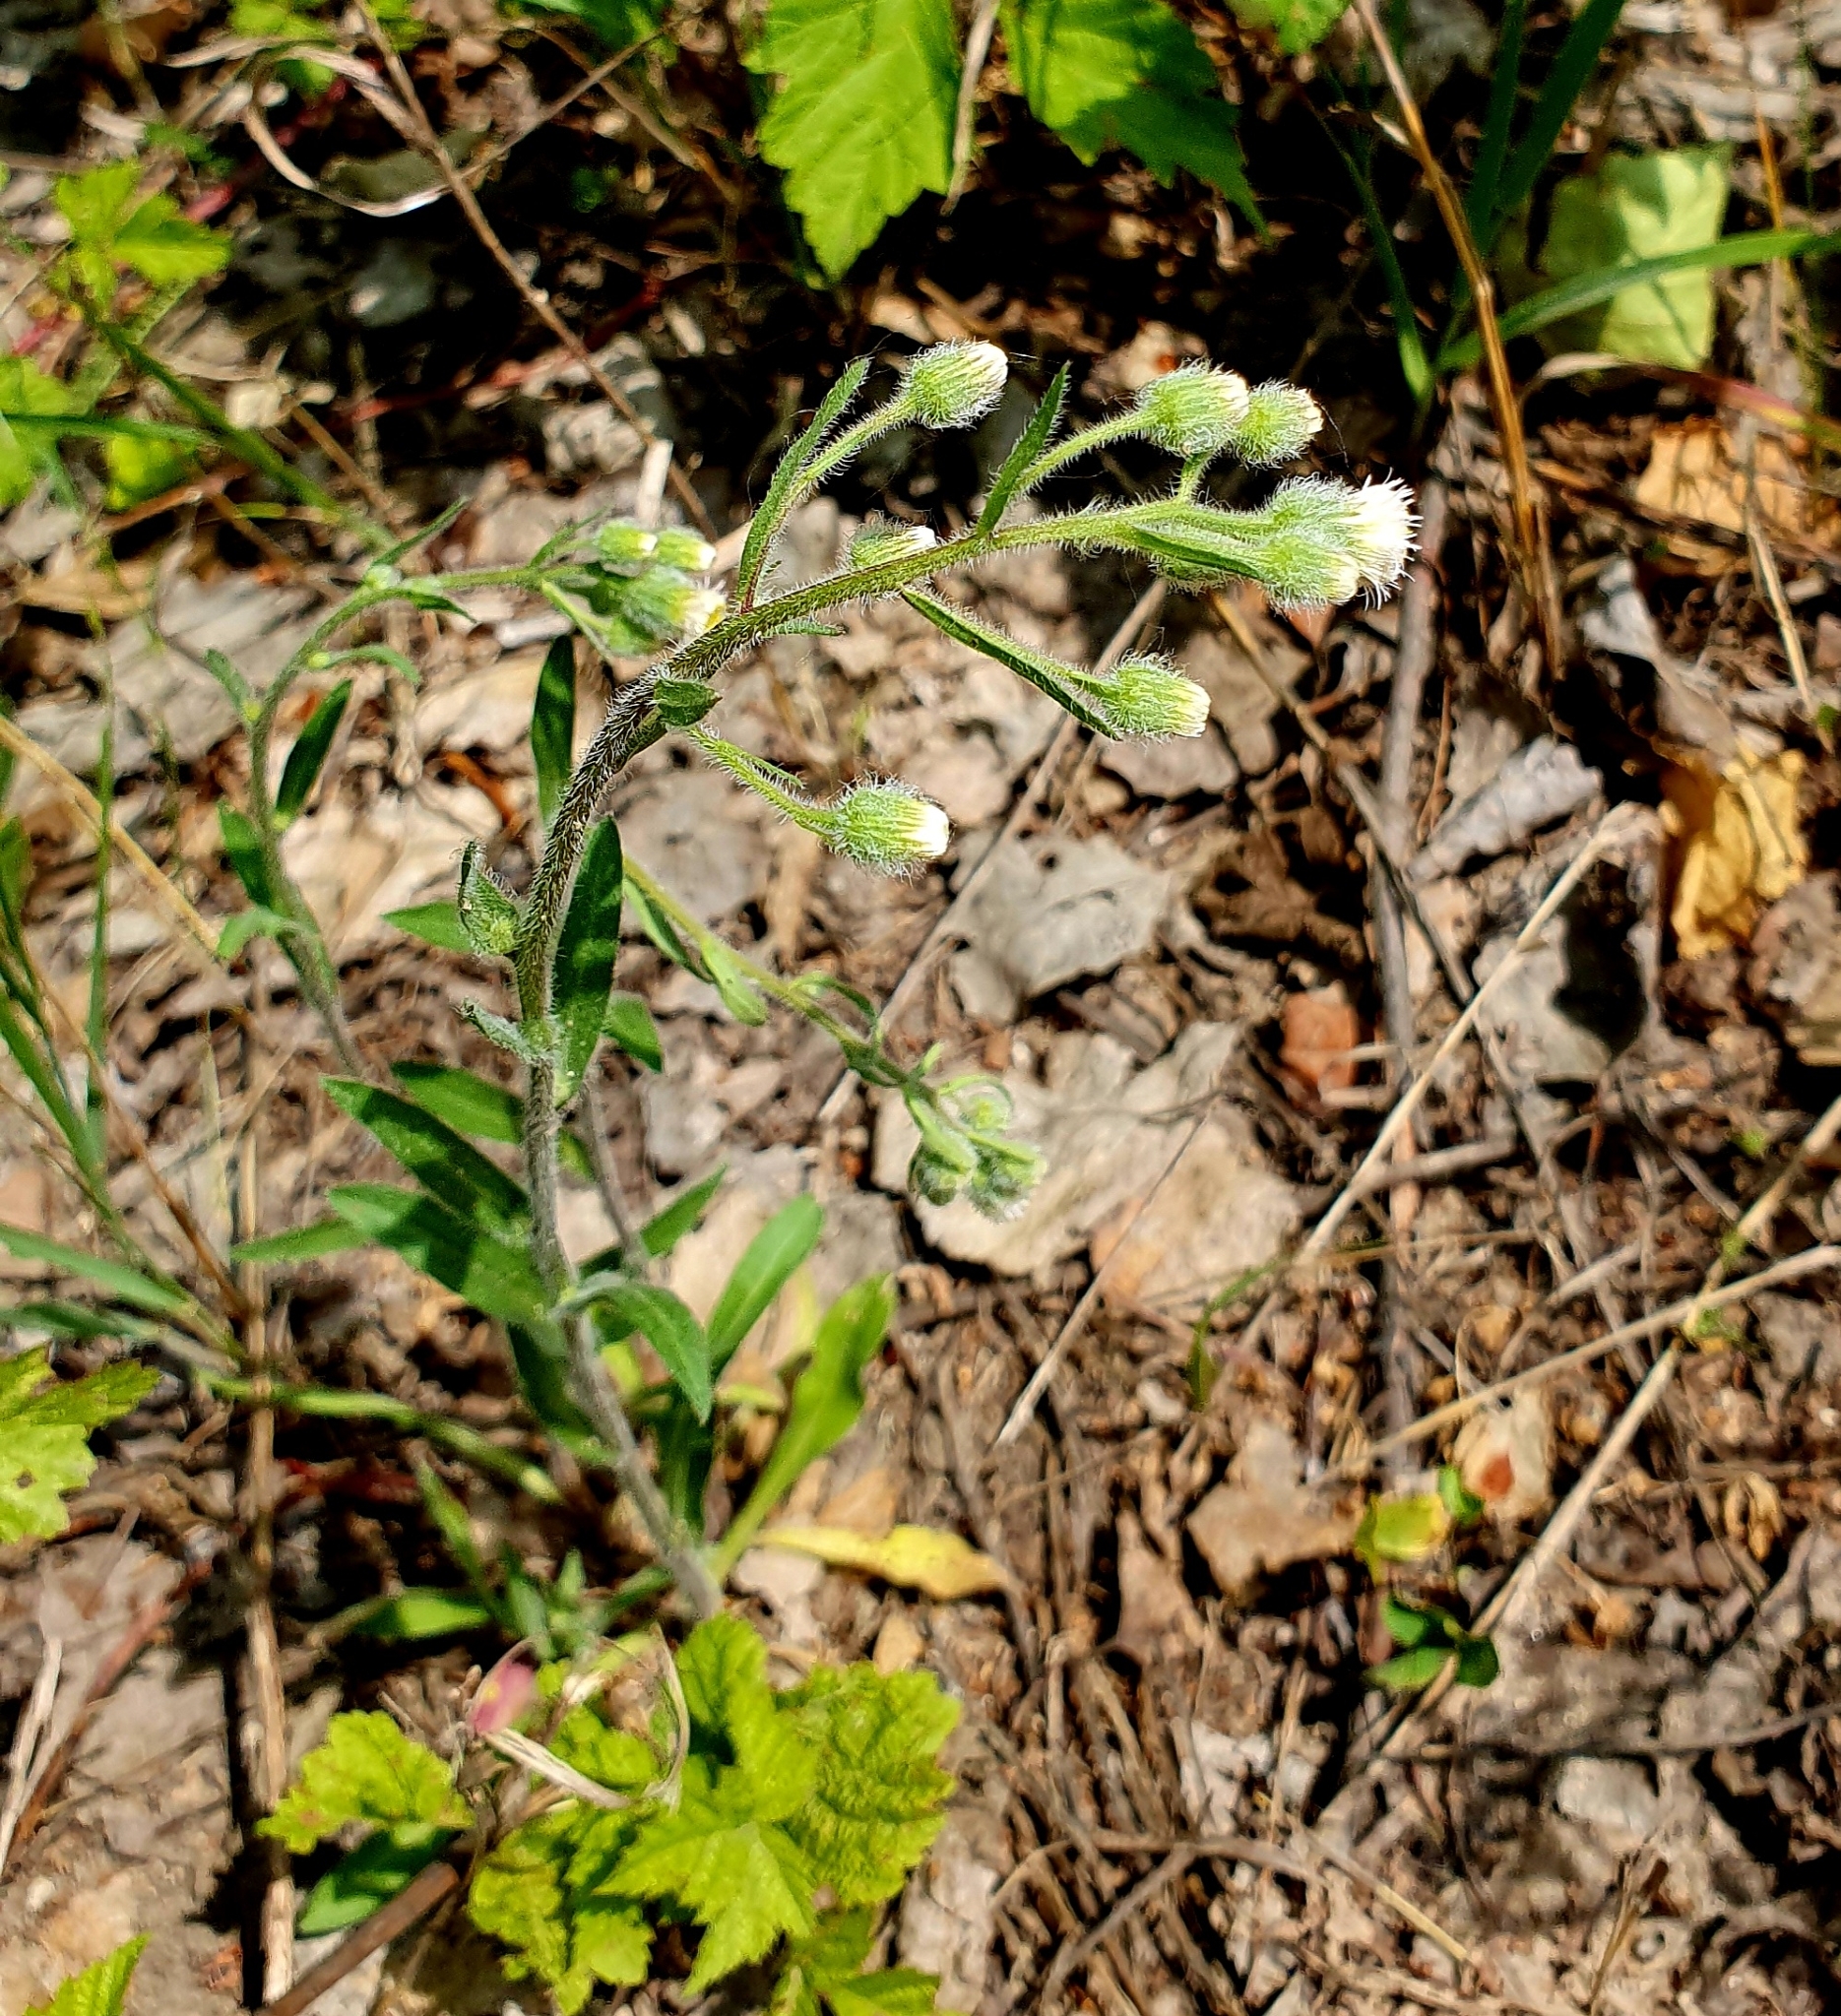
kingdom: Plantae
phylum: Tracheophyta
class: Magnoliopsida
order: Asterales
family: Asteraceae
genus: Erigeron
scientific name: Erigeron acris
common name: Blue fleabane
